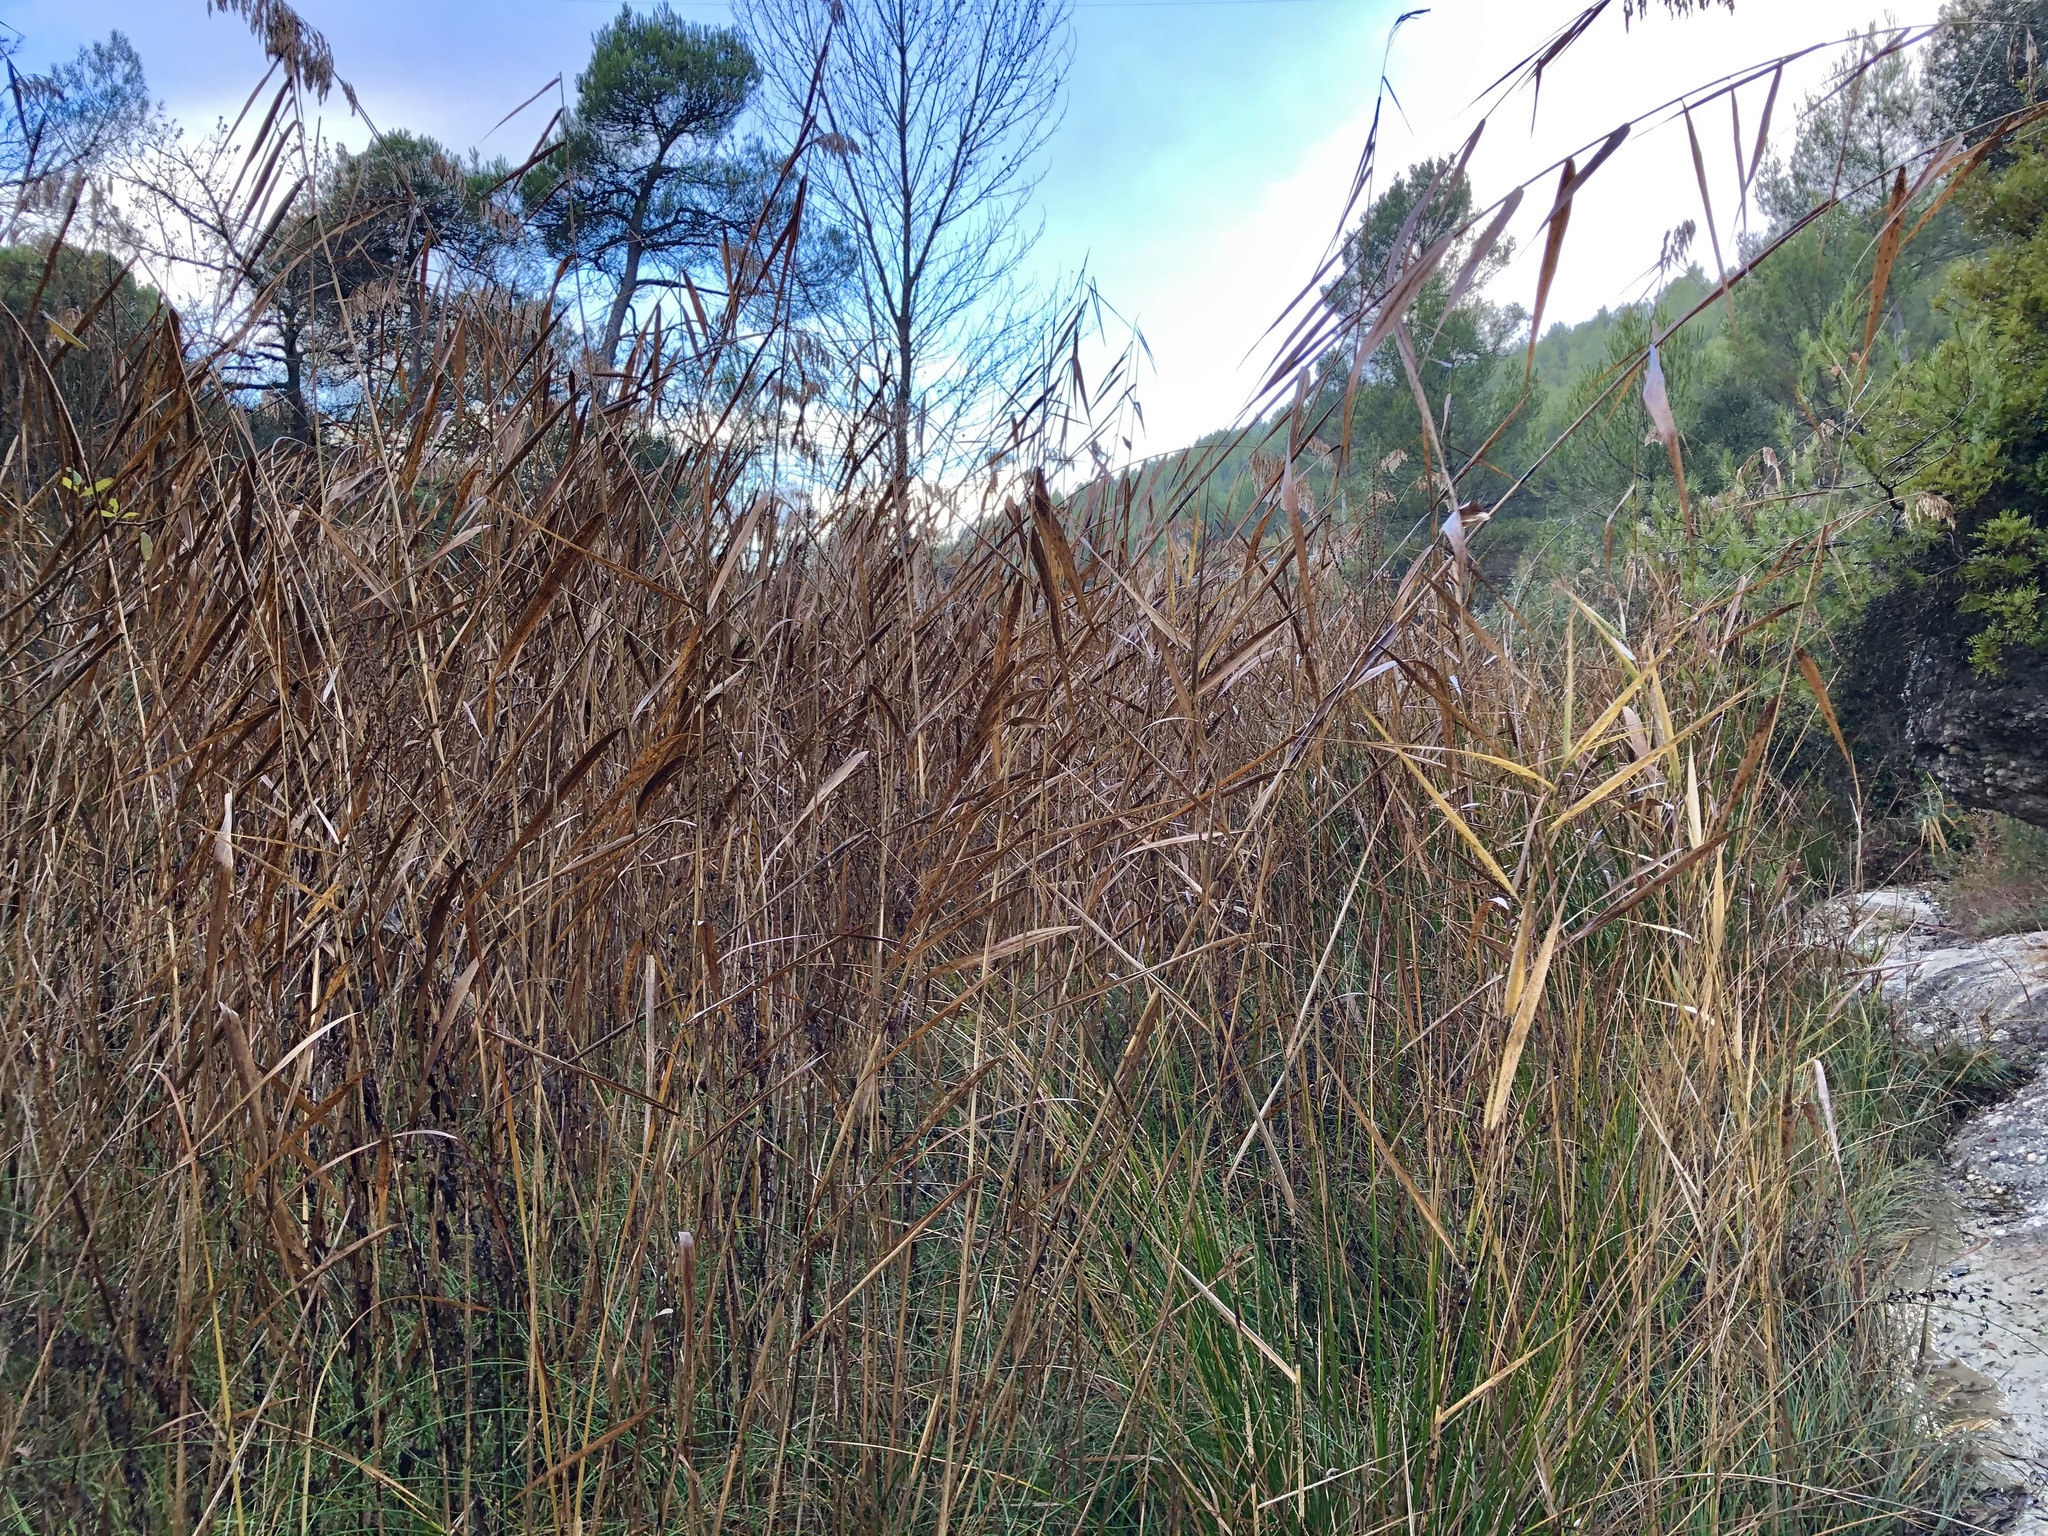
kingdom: Plantae
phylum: Tracheophyta
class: Liliopsida
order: Poales
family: Poaceae
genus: Phragmites
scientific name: Phragmites australis
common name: Common reed
